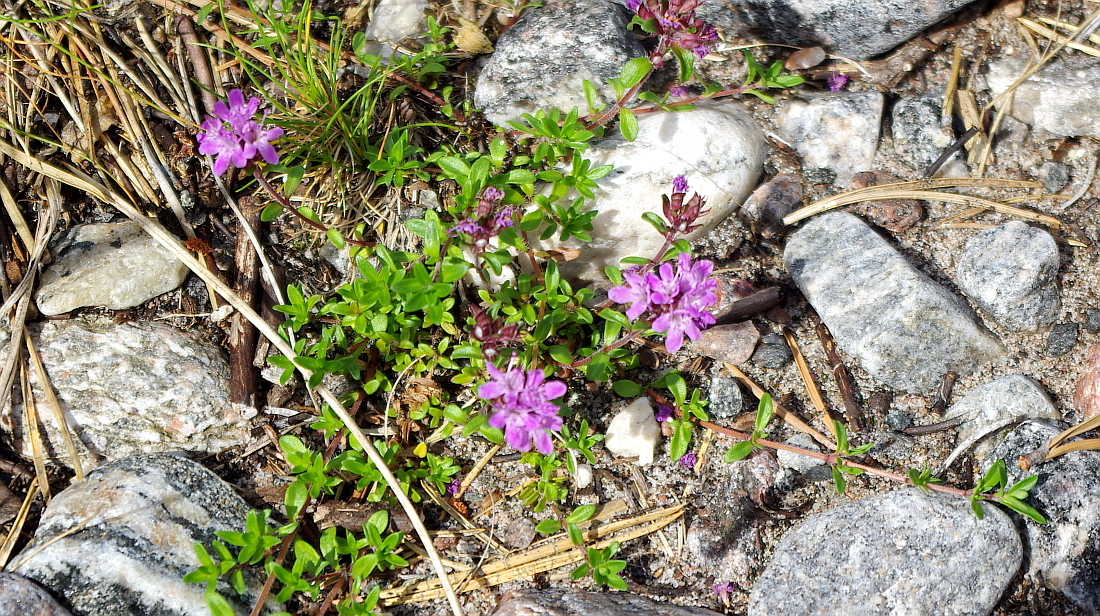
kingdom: Plantae
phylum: Tracheophyta
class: Magnoliopsida
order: Lamiales
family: Lamiaceae
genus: Thymus
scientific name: Thymus serpyllum
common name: Breckland thyme
